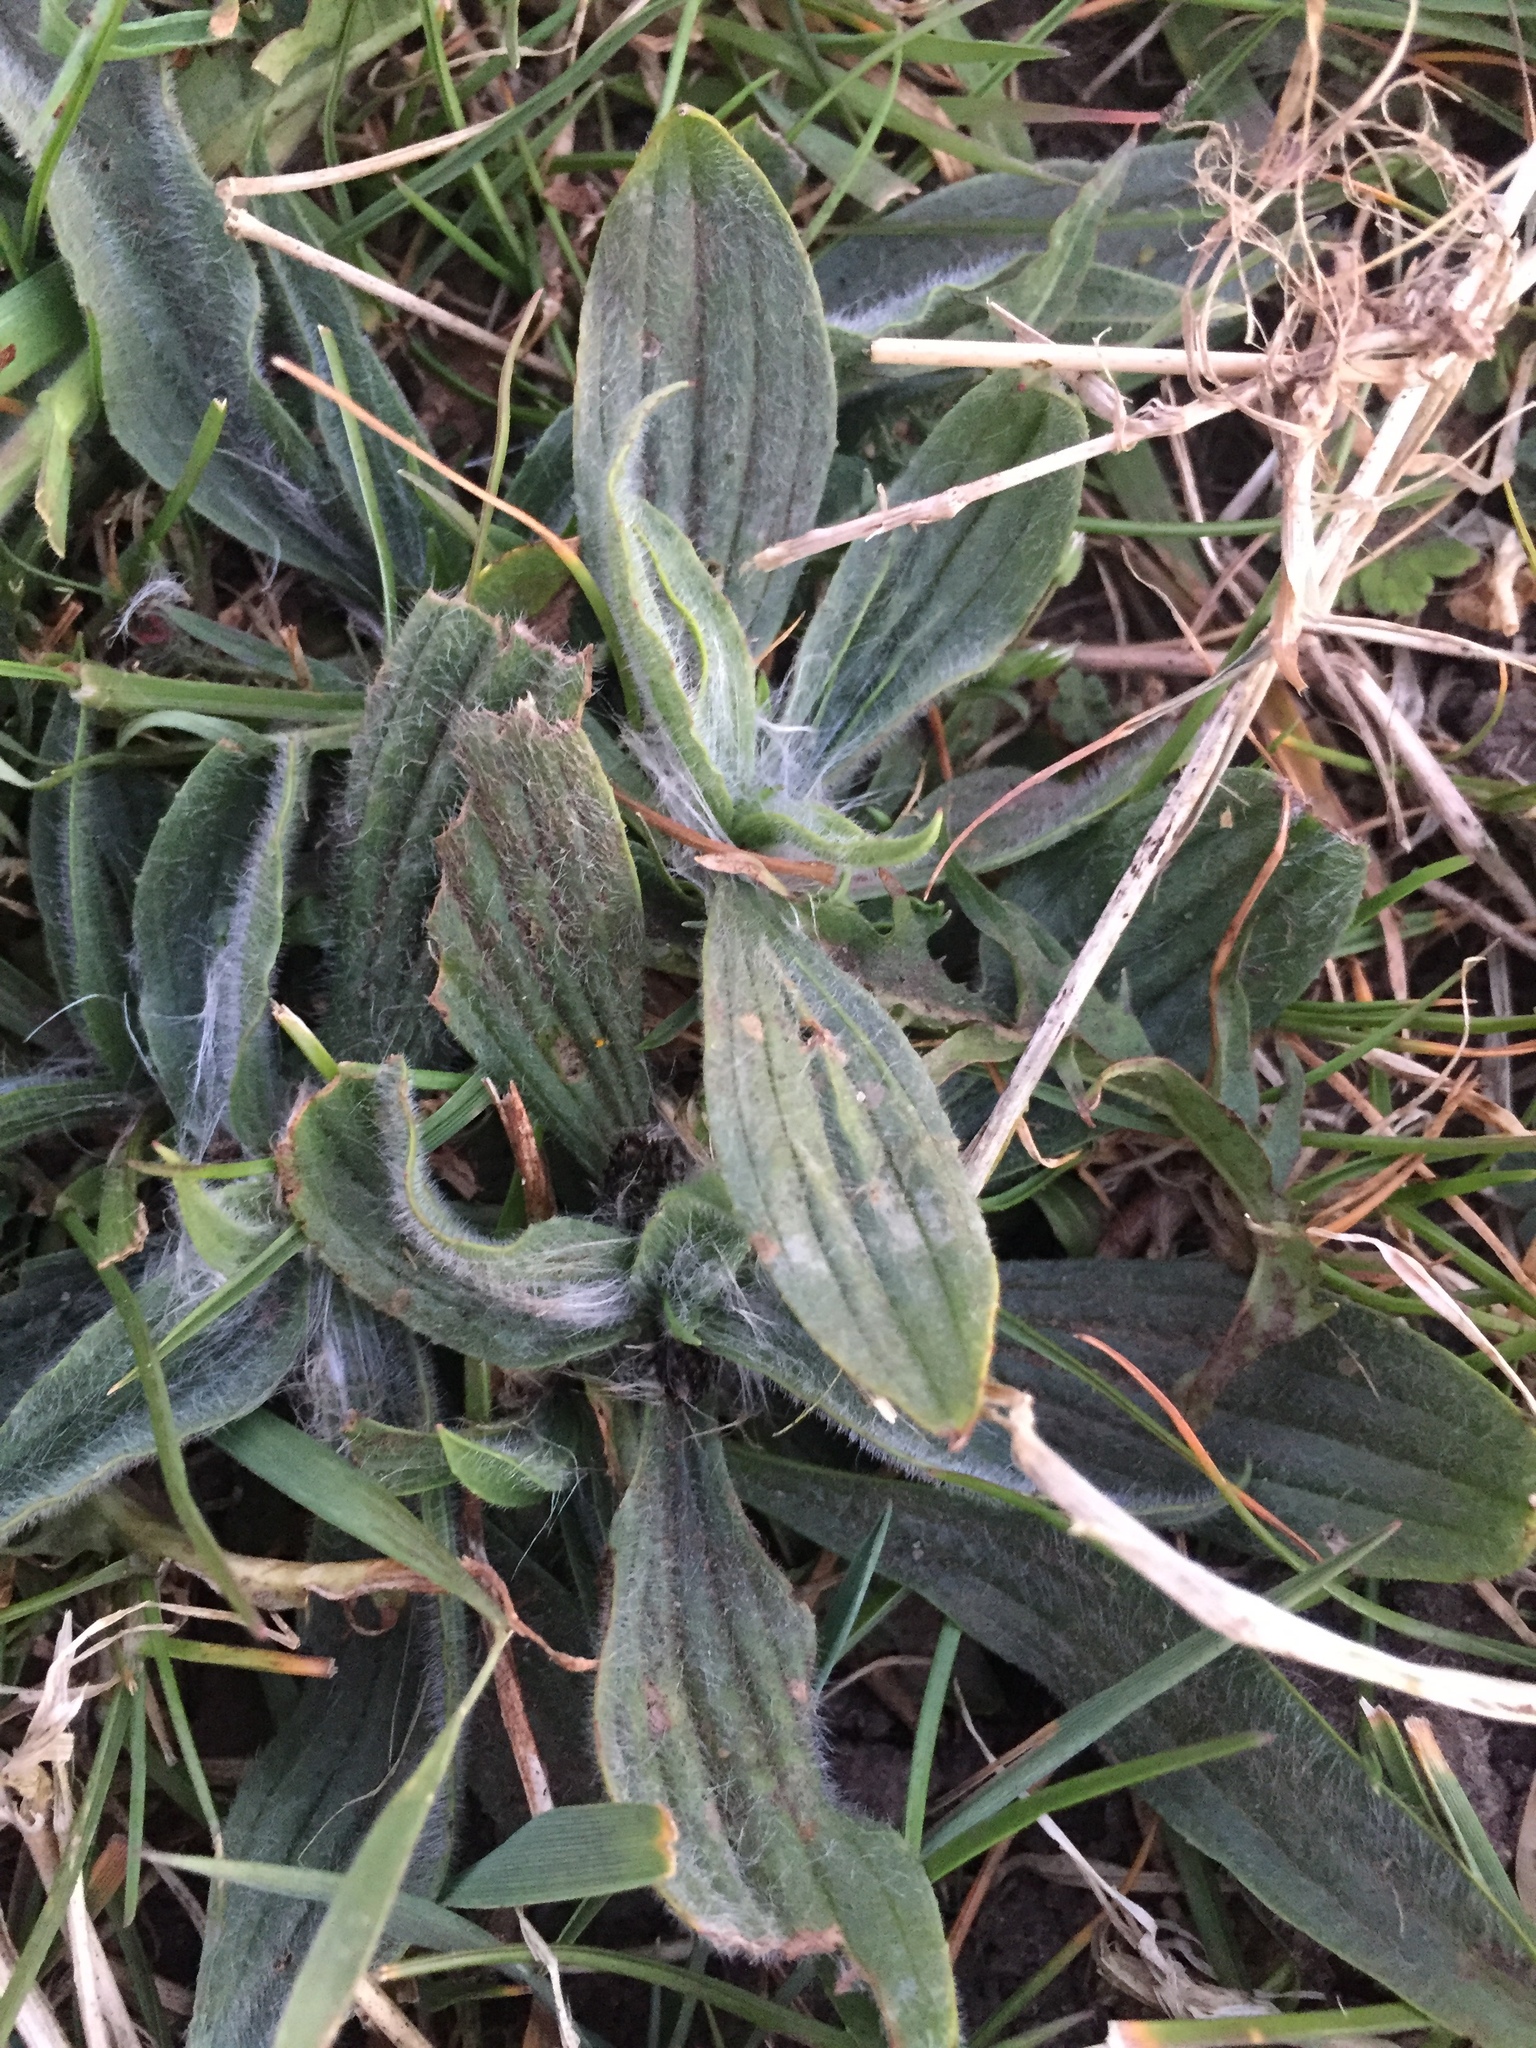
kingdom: Plantae
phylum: Tracheophyta
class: Magnoliopsida
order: Lamiales
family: Plantaginaceae
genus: Plantago
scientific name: Plantago media
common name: Hoary plantain
